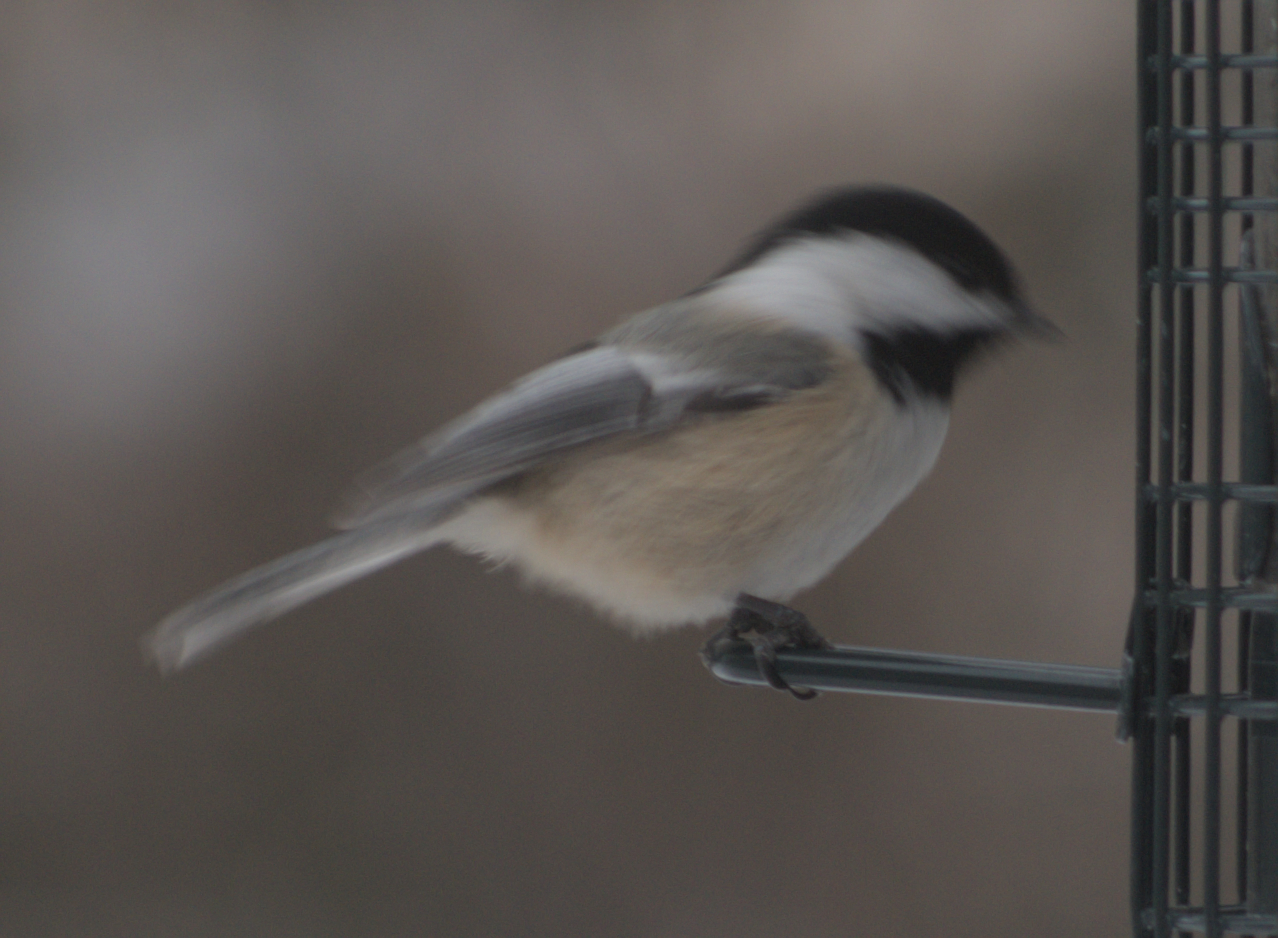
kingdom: Animalia
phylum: Chordata
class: Aves
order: Passeriformes
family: Paridae
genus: Poecile
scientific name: Poecile atricapillus
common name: Black-capped chickadee
